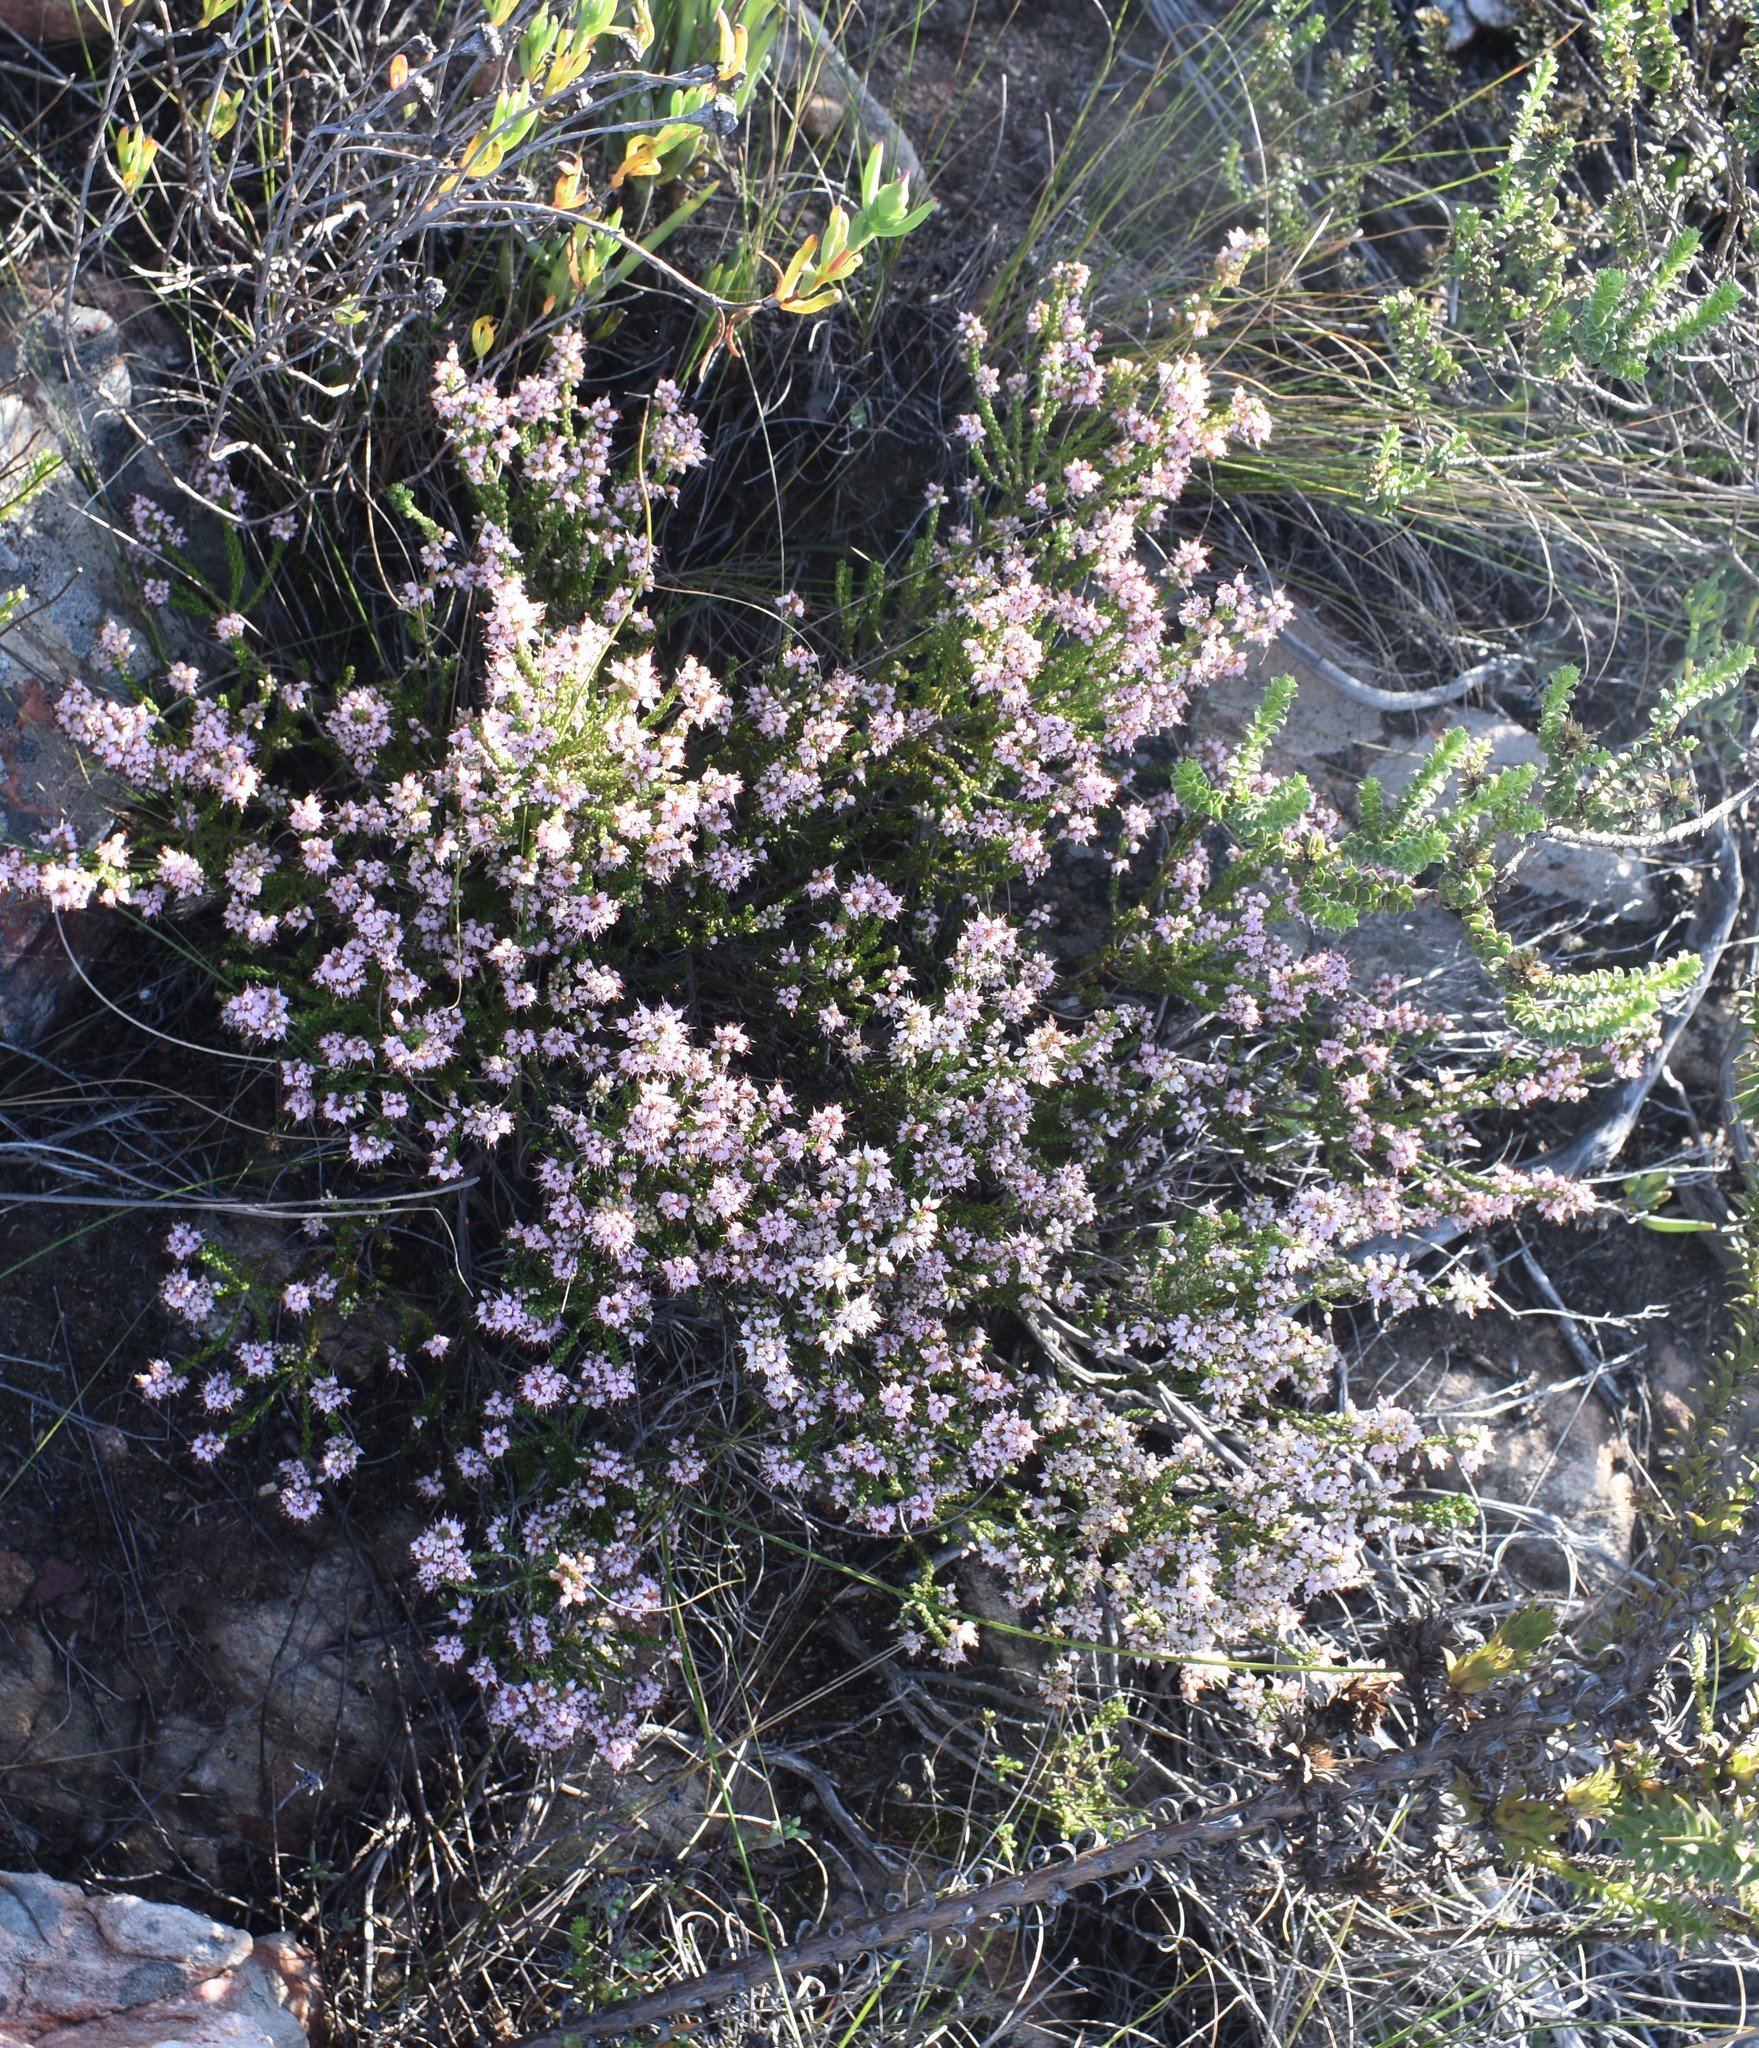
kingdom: Plantae
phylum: Tracheophyta
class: Magnoliopsida
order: Ericales
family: Ericaceae
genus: Erica
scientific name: Erica petraea
